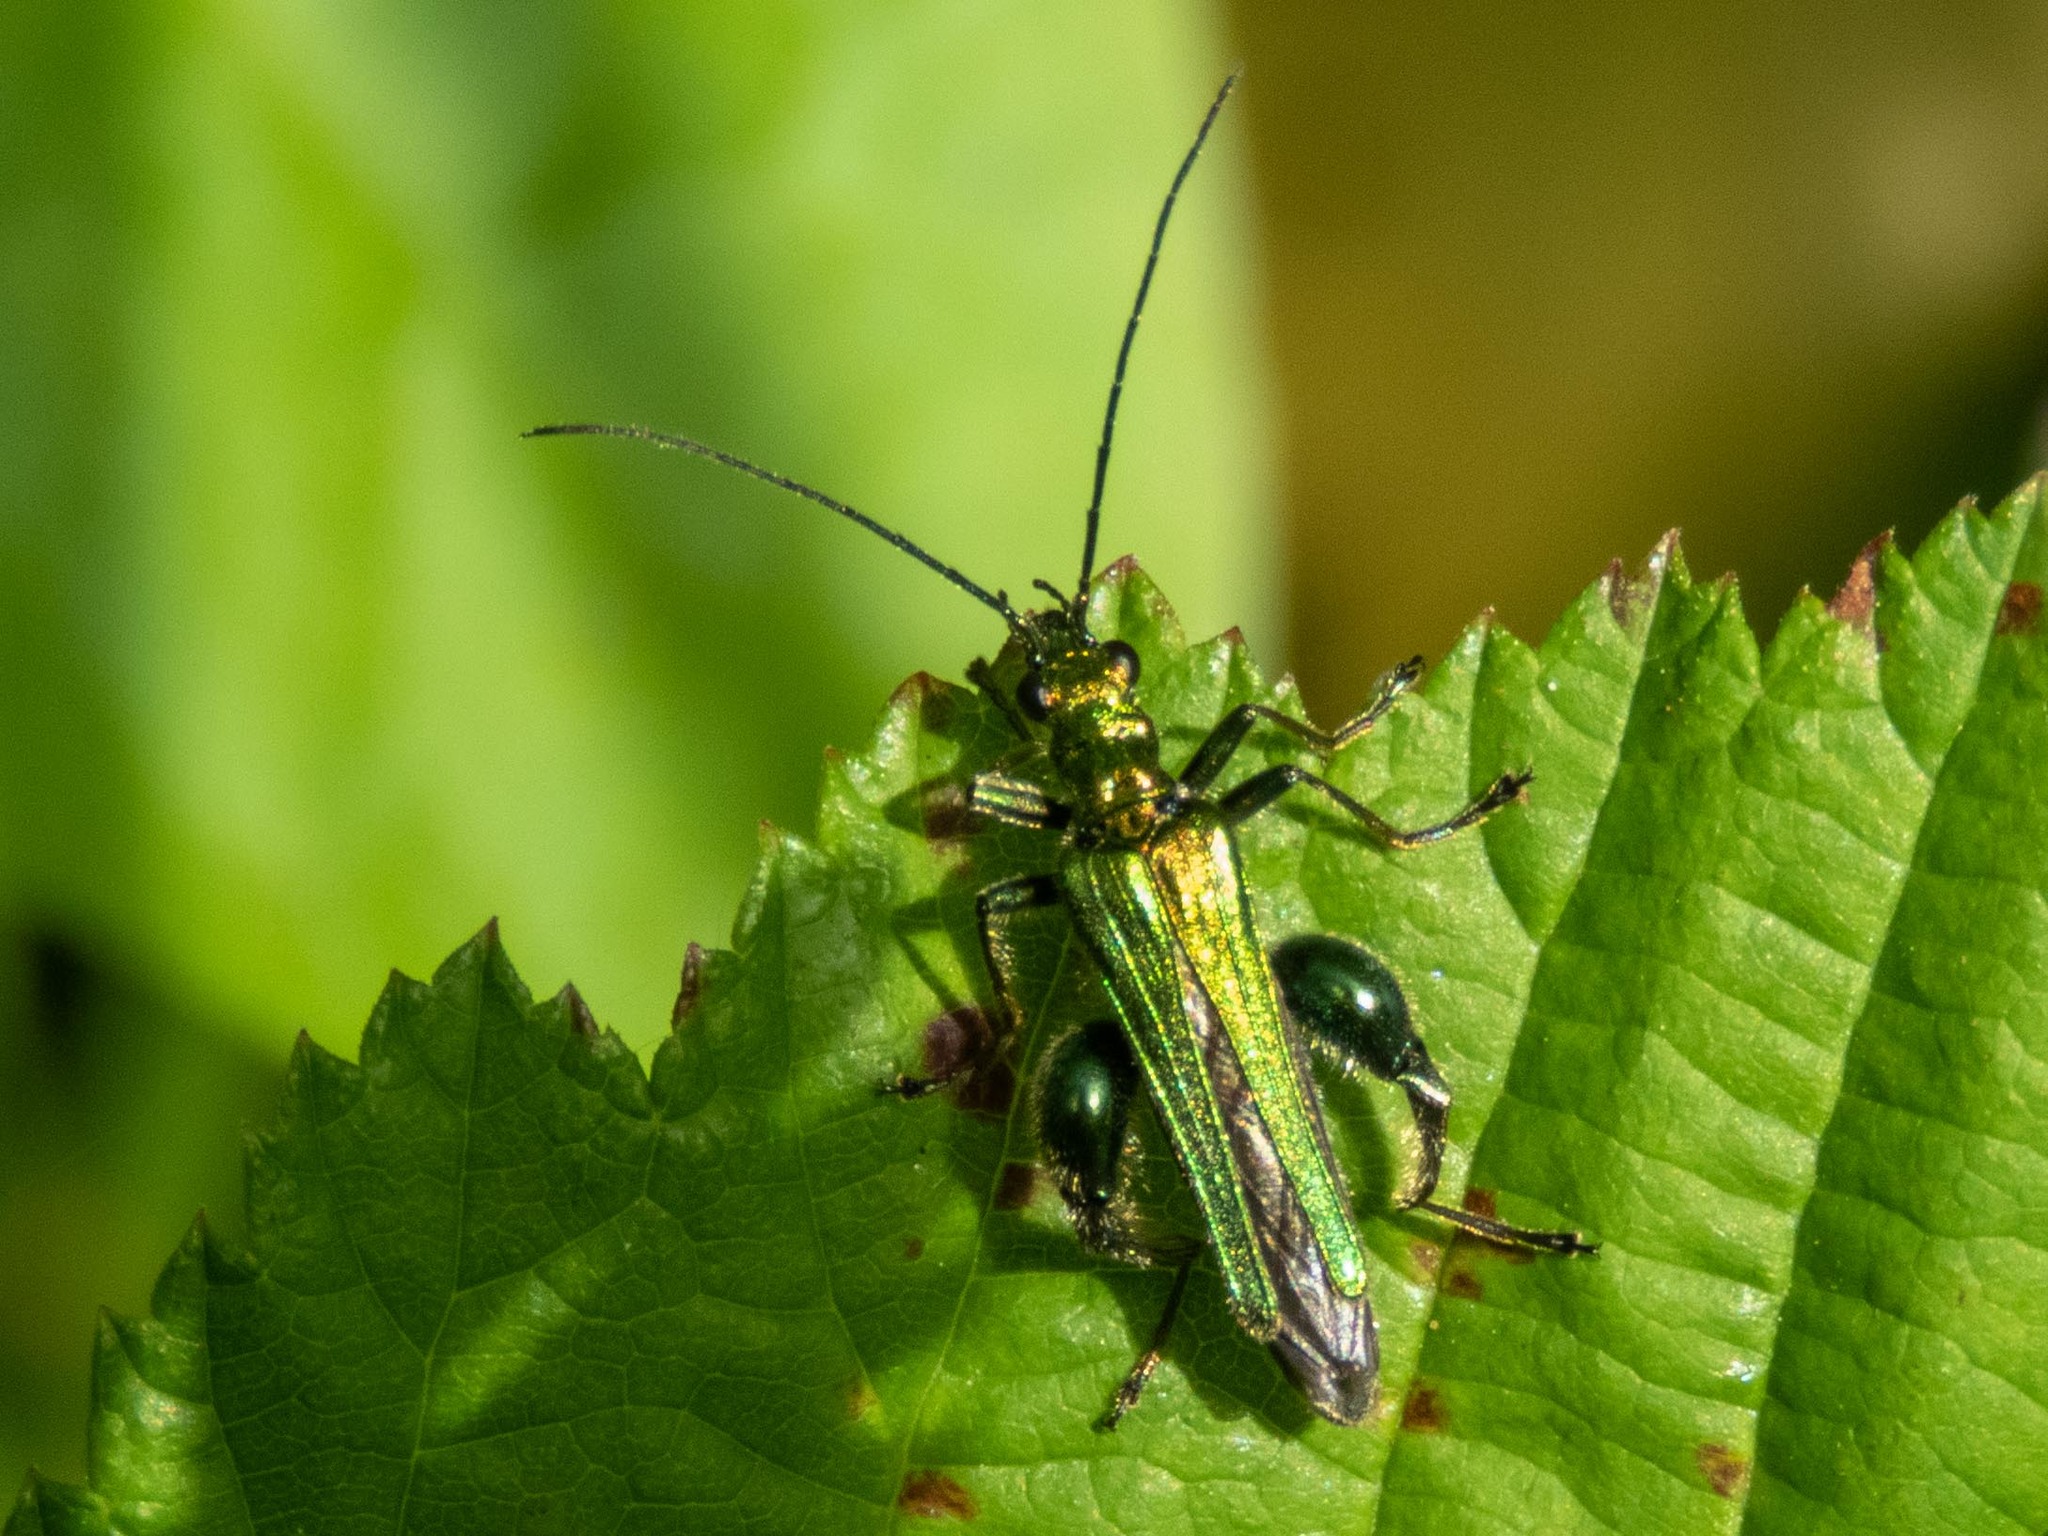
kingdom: Animalia
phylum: Arthropoda
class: Insecta
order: Coleoptera
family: Oedemeridae
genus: Oedemera
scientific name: Oedemera nobilis
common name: Swollen-thighed beetle
